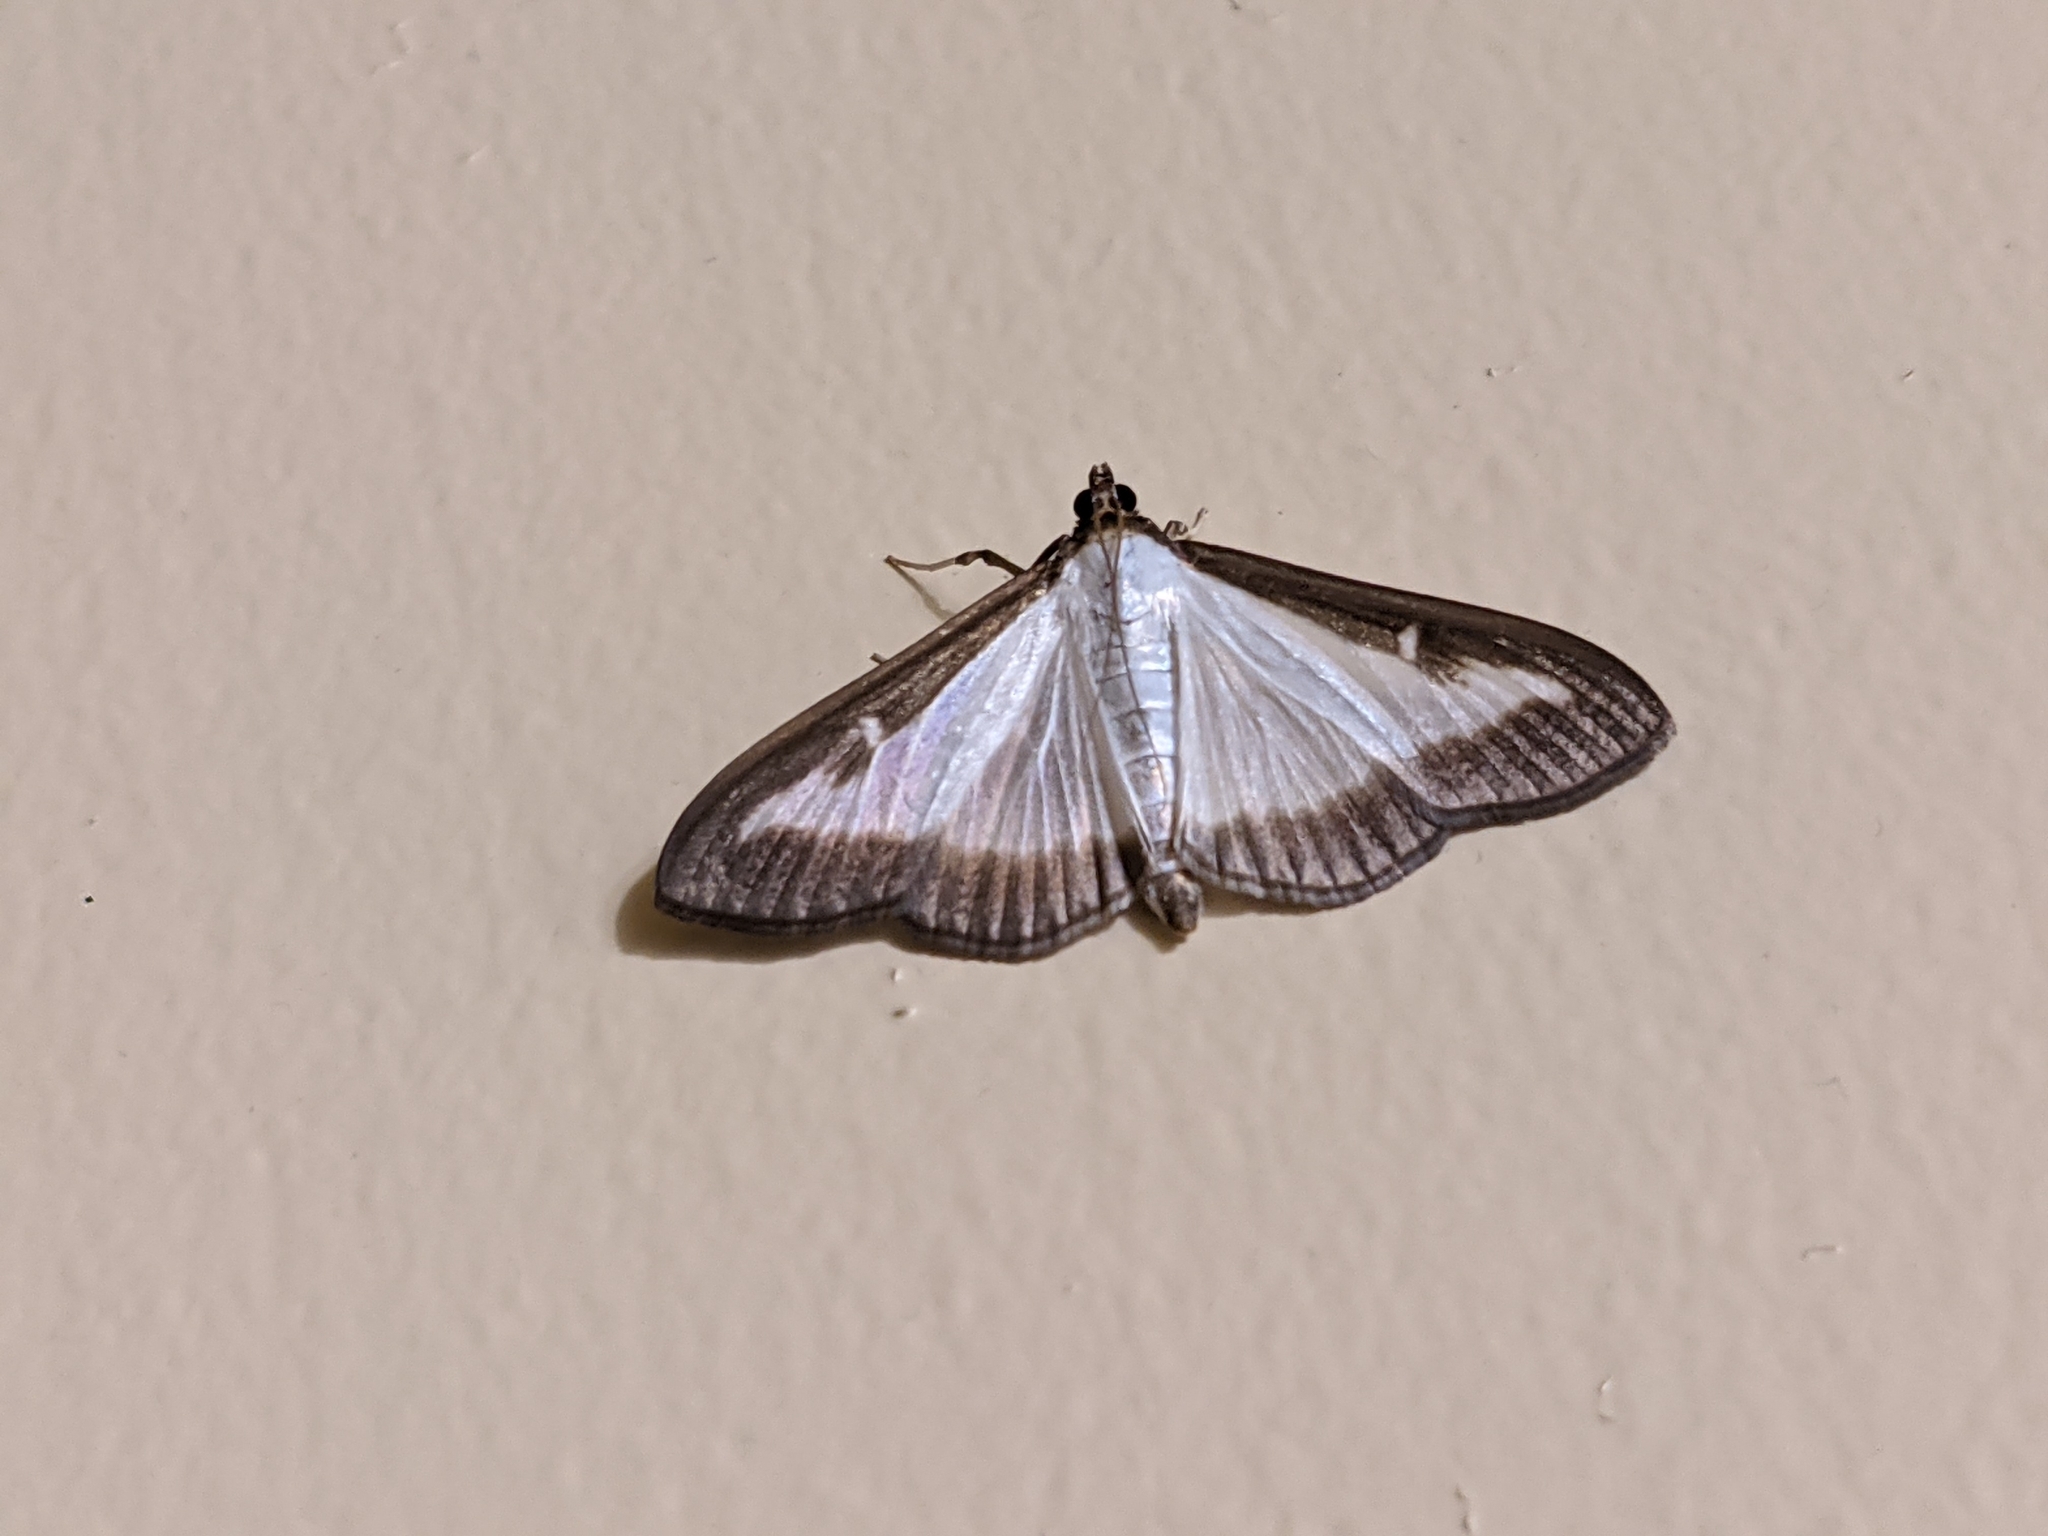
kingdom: Animalia
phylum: Arthropoda
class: Insecta
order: Lepidoptera
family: Crambidae
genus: Cydalima
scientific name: Cydalima perspectalis
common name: Box tree moth
